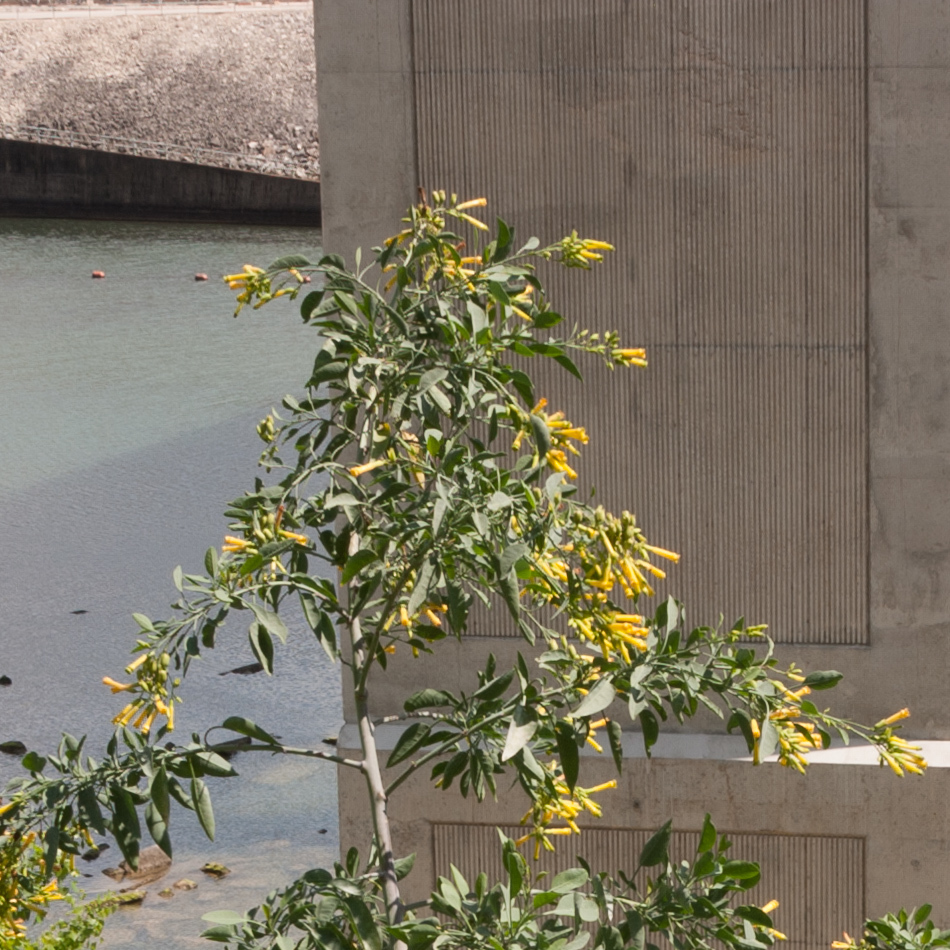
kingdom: Plantae
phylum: Tracheophyta
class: Magnoliopsida
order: Solanales
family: Solanaceae
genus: Nicotiana
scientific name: Nicotiana glauca
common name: Tree tobacco
